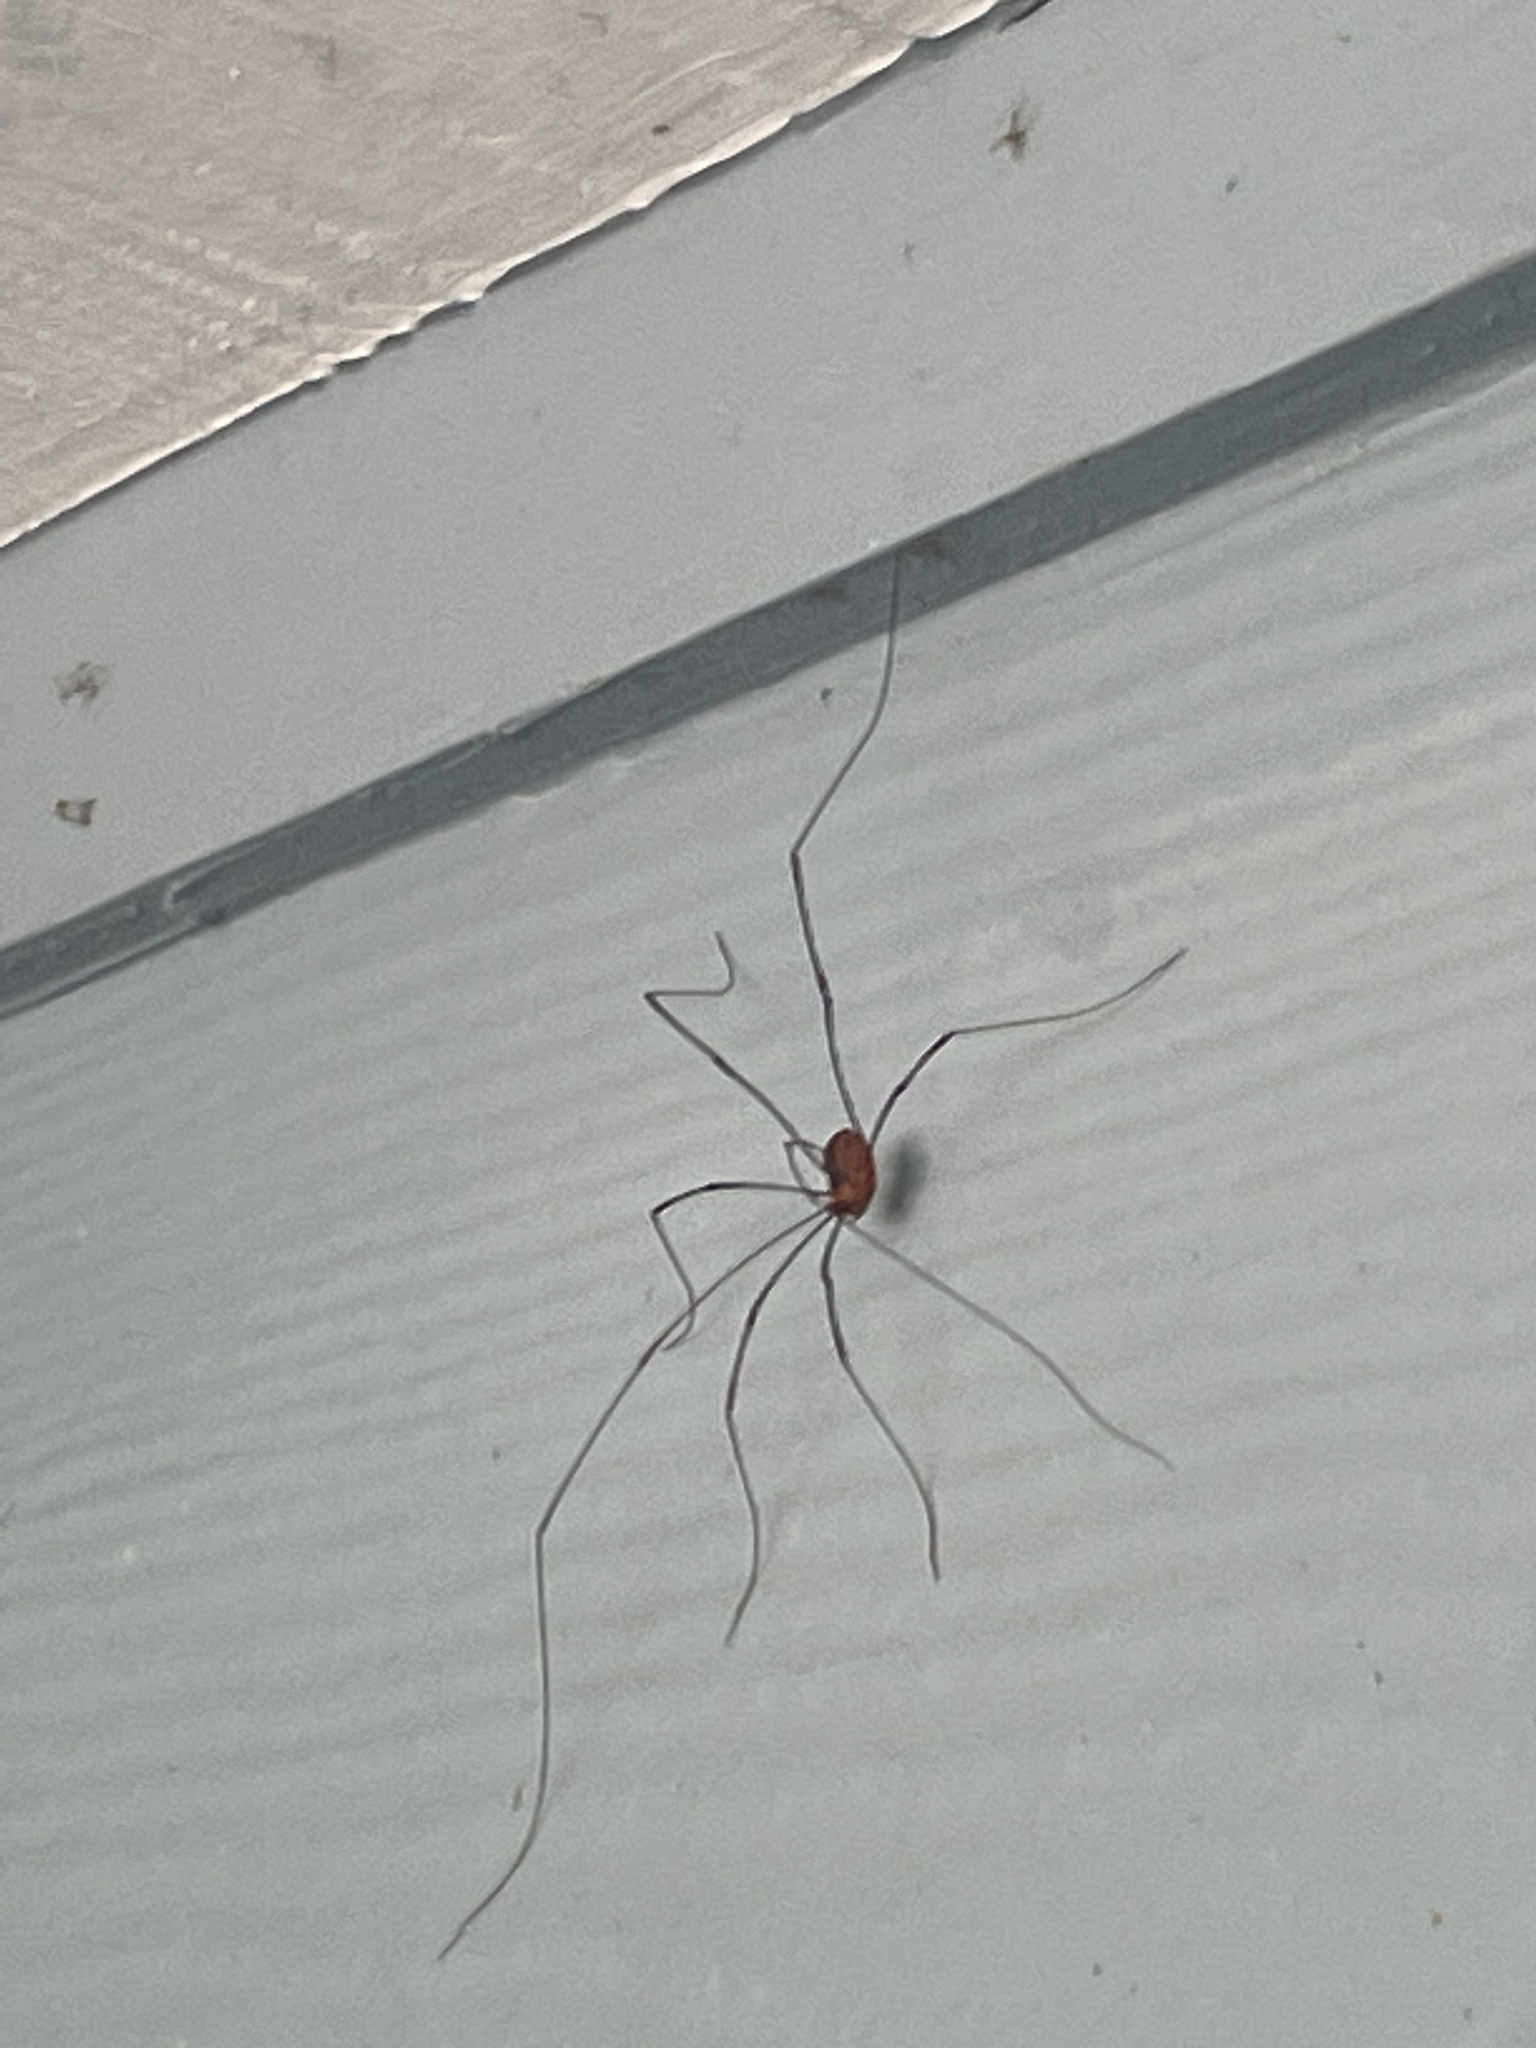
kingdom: Animalia
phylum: Arthropoda
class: Arachnida
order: Opiliones
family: Sclerosomatidae
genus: Leiobunum
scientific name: Leiobunum vittatum
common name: Eastern harvestman
